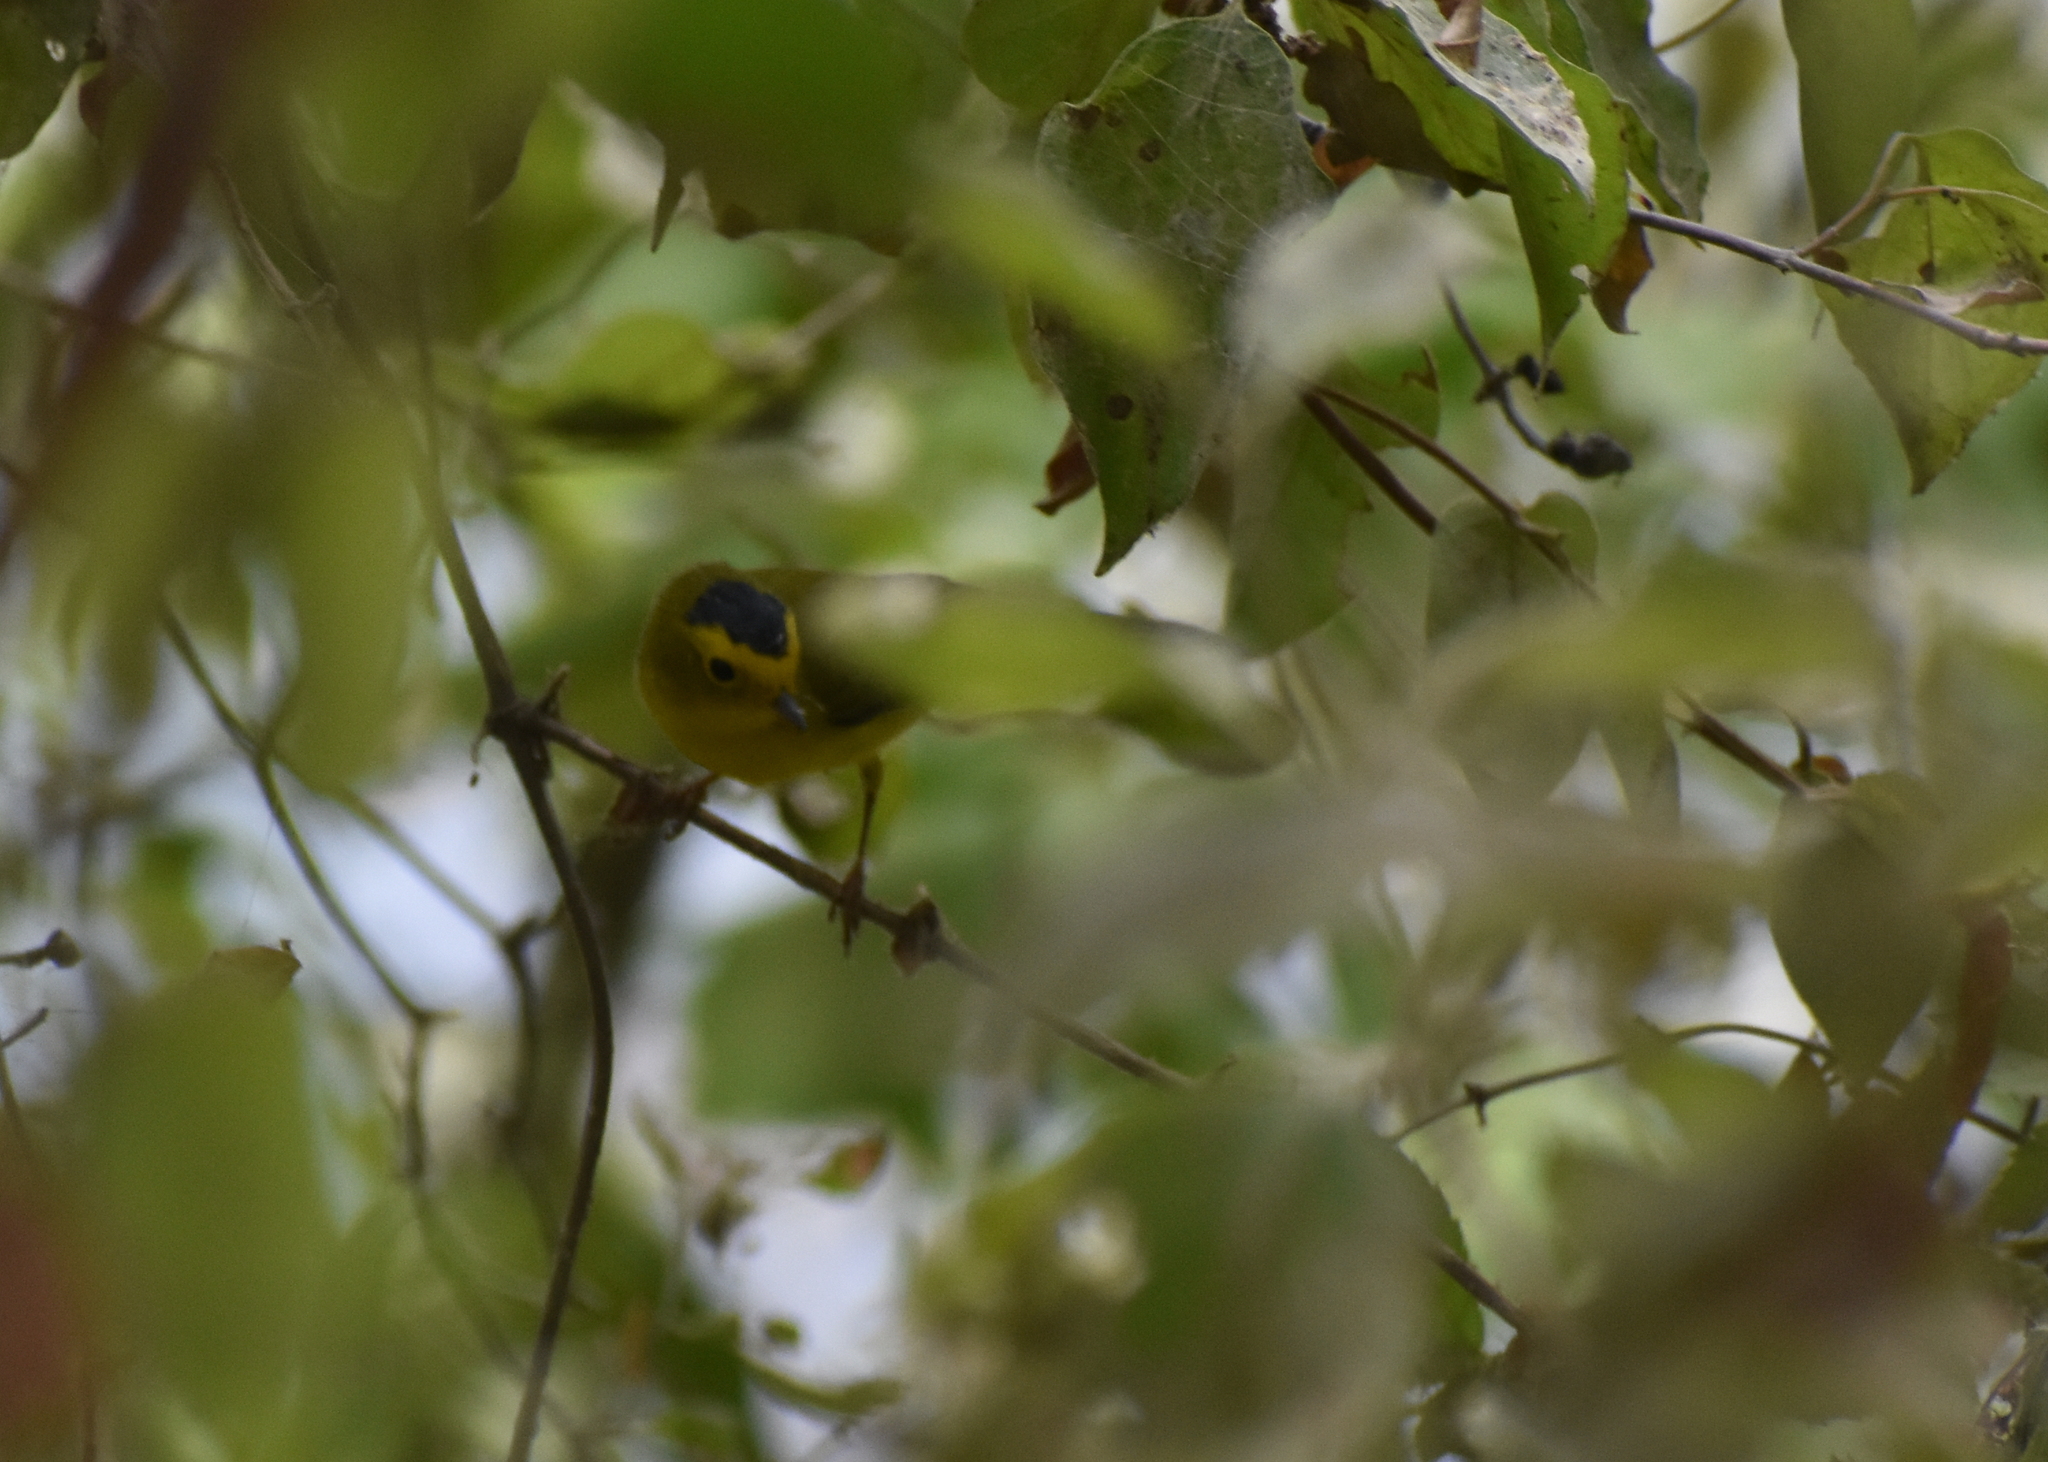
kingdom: Animalia
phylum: Chordata
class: Aves
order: Passeriformes
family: Parulidae
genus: Cardellina
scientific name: Cardellina pusilla
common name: Wilson's warbler
